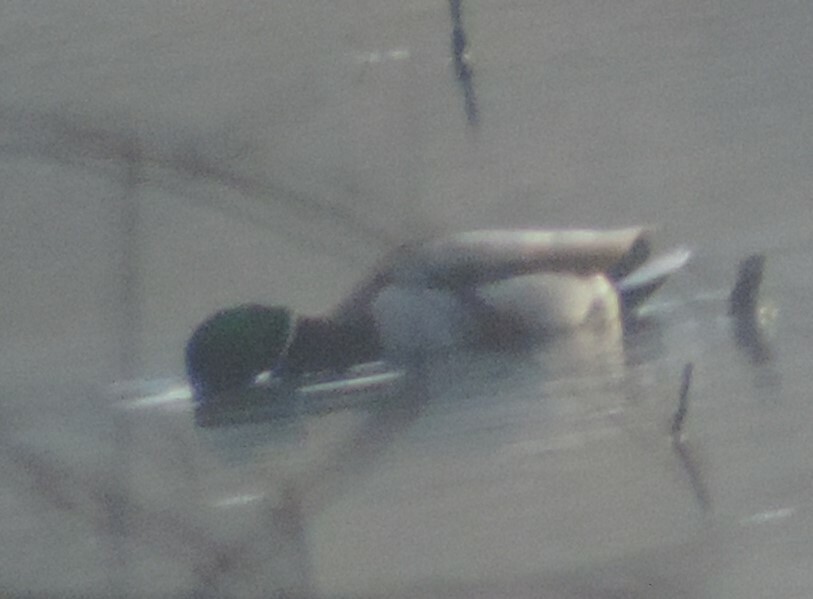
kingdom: Animalia
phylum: Chordata
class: Aves
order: Anseriformes
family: Anatidae
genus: Anas
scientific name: Anas platyrhynchos
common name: Mallard
